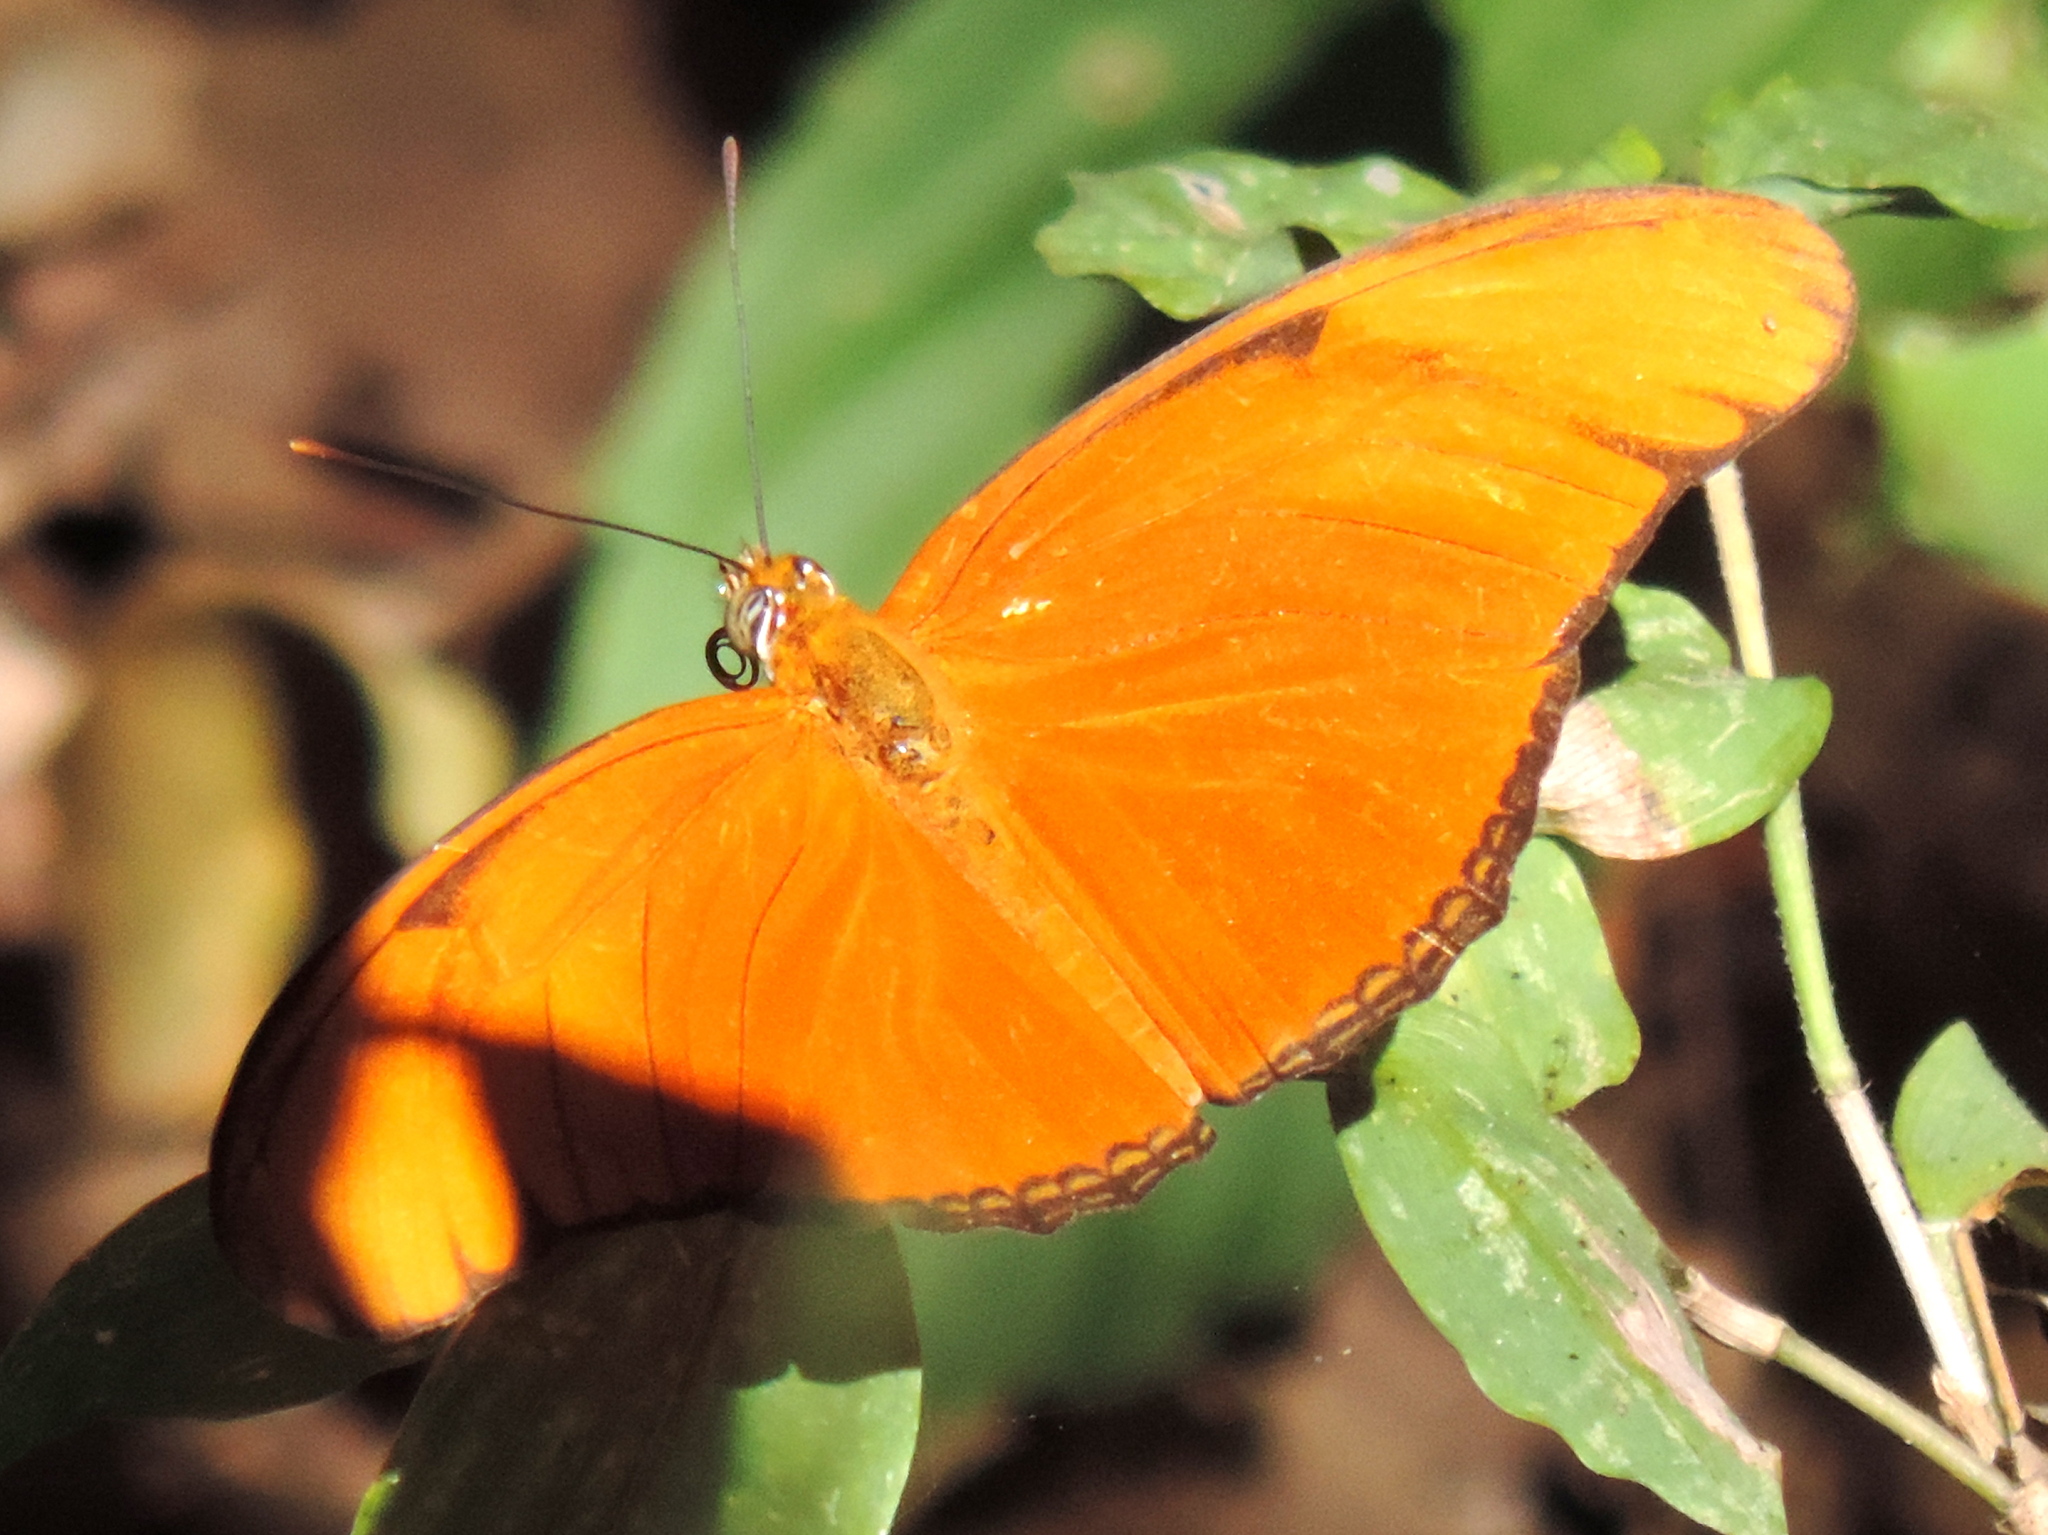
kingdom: Animalia
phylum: Arthropoda
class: Insecta
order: Lepidoptera
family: Nymphalidae
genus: Dryas
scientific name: Dryas iulia
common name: Flambeau
